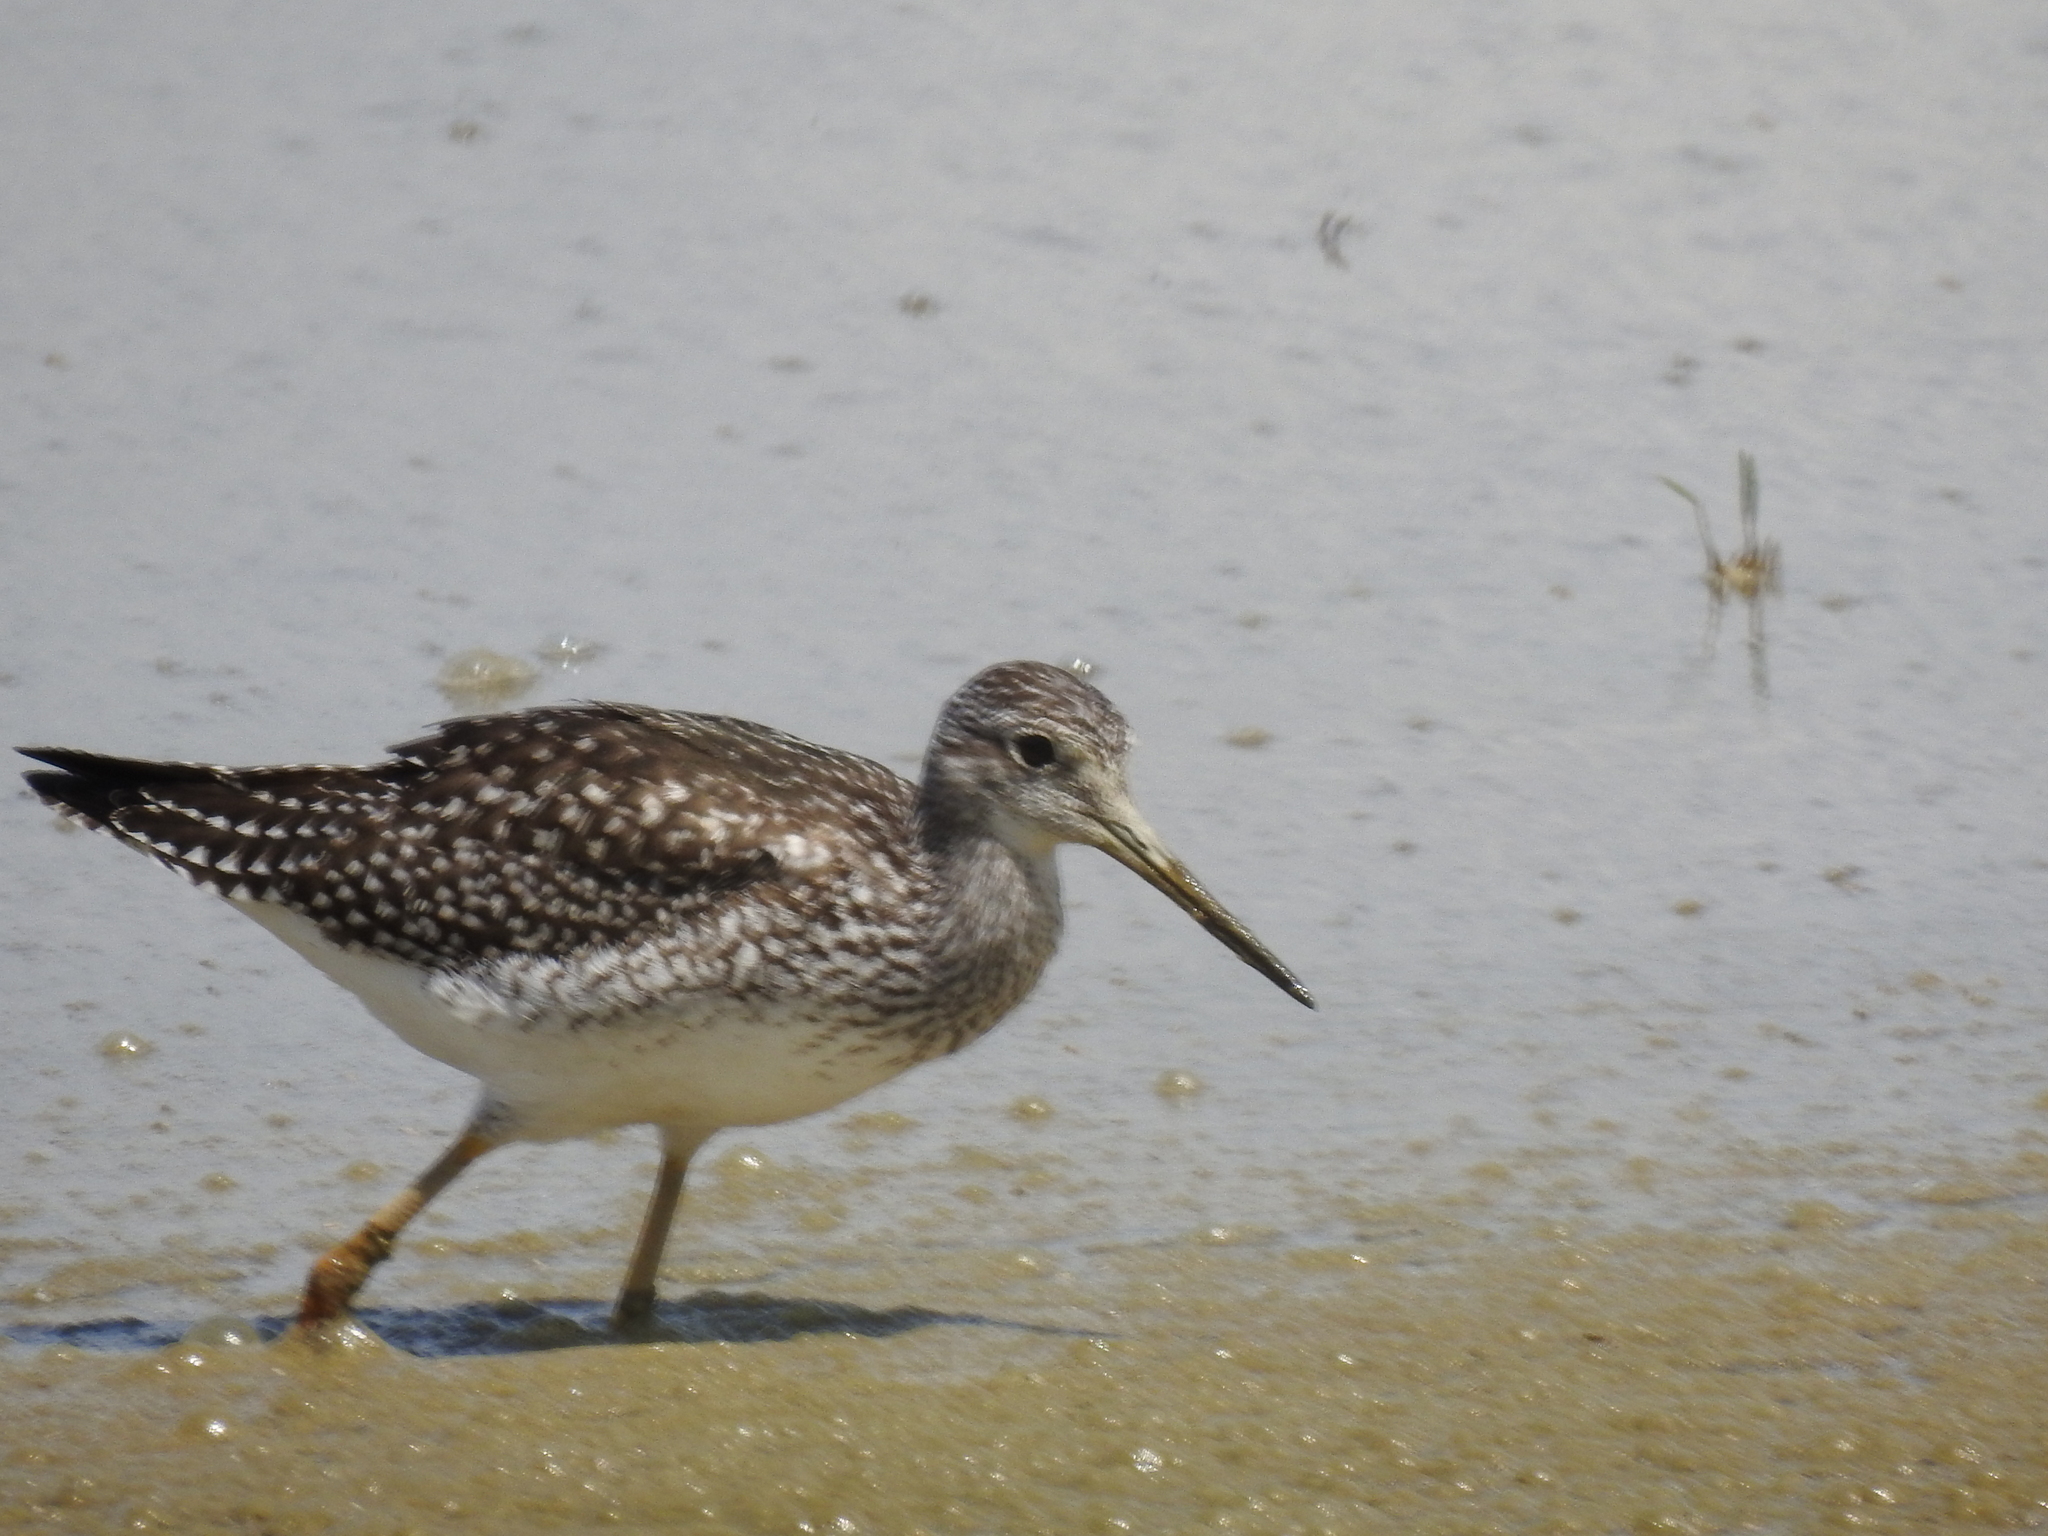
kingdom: Animalia
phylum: Chordata
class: Aves
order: Charadriiformes
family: Scolopacidae
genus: Tringa
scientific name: Tringa melanoleuca
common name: Greater yellowlegs
